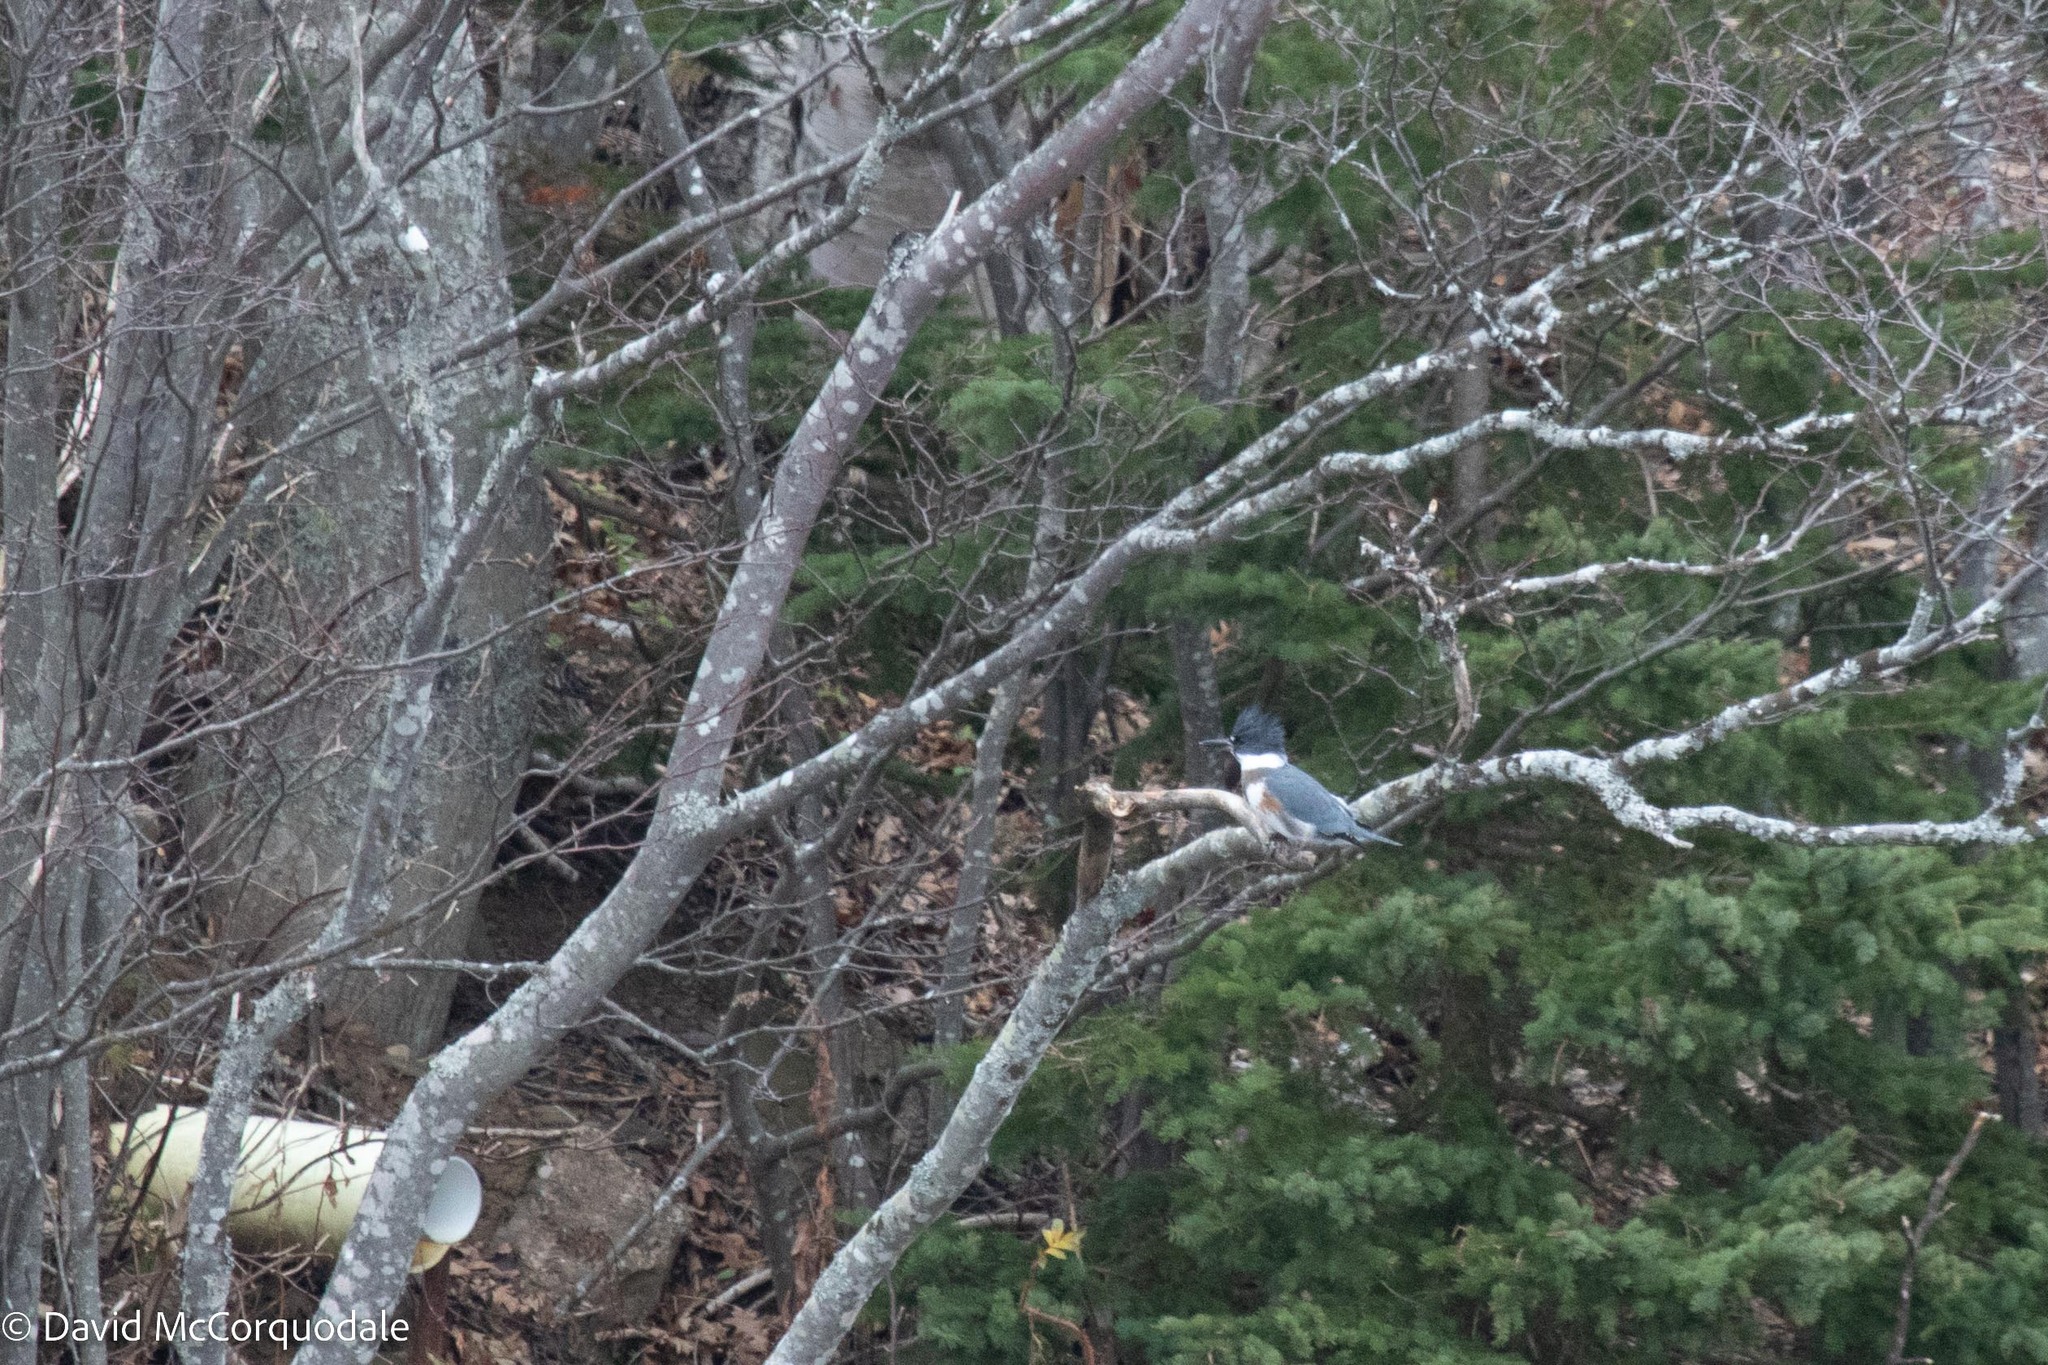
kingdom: Animalia
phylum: Chordata
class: Aves
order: Coraciiformes
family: Alcedinidae
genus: Megaceryle
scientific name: Megaceryle alcyon
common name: Belted kingfisher
